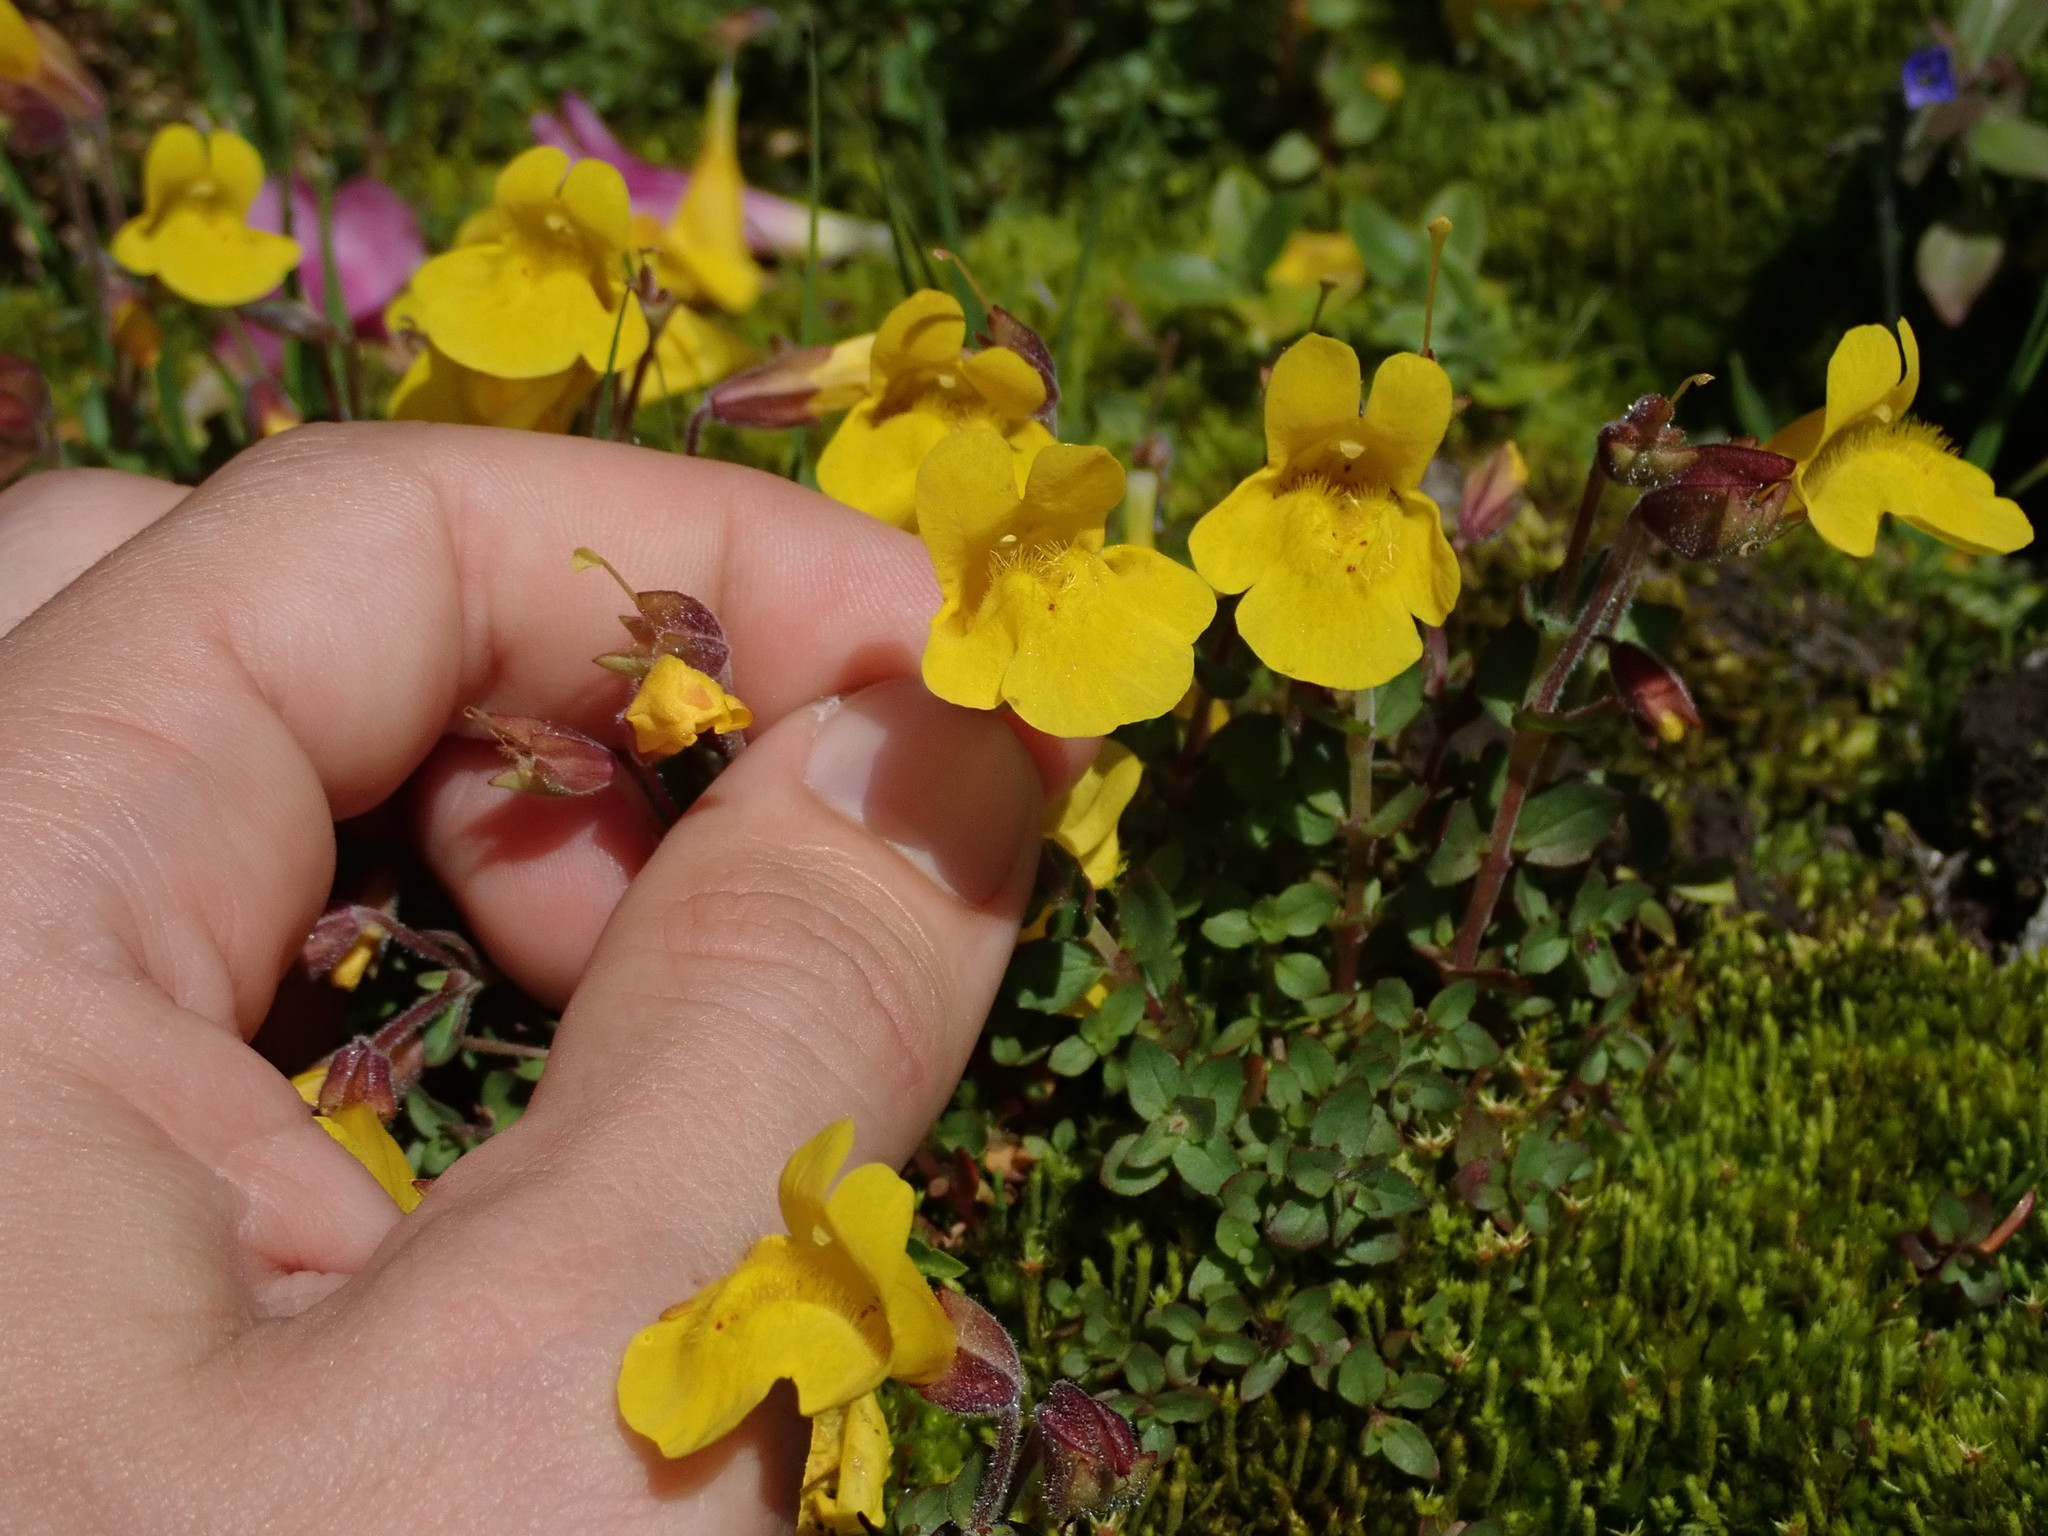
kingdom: Plantae
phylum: Tracheophyta
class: Magnoliopsida
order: Lamiales
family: Phrymaceae
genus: Erythranthe
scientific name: Erythranthe caespitosa
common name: Subalpine monkeyflower
